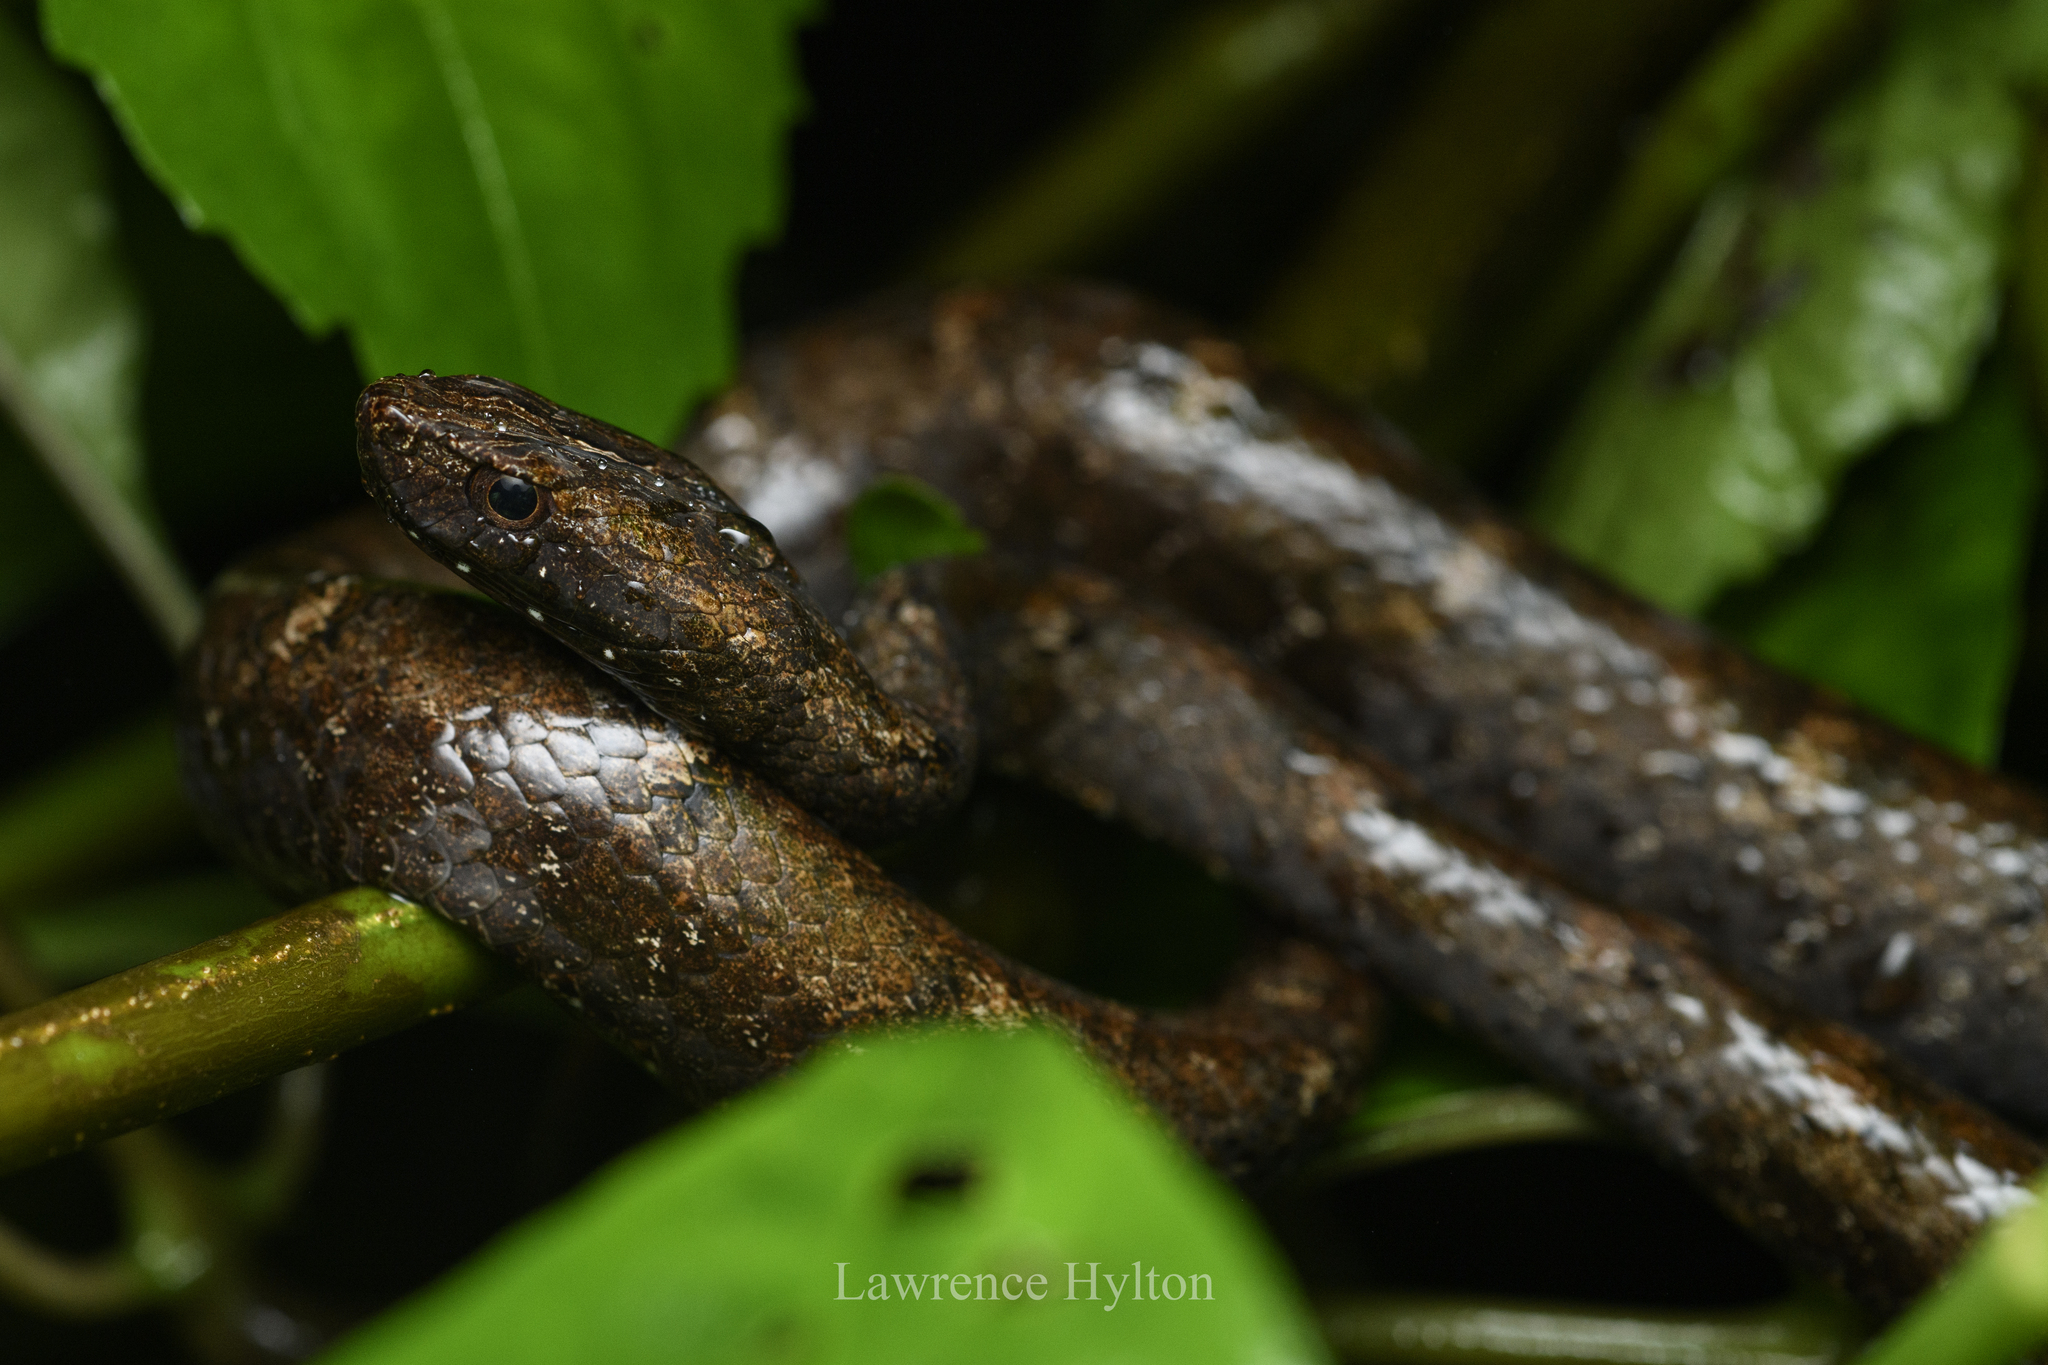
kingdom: Animalia
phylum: Chordata
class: Squamata
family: Pseudaspididae
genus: Psammodynastes
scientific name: Psammodynastes pulverulentus
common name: Common mock viper
